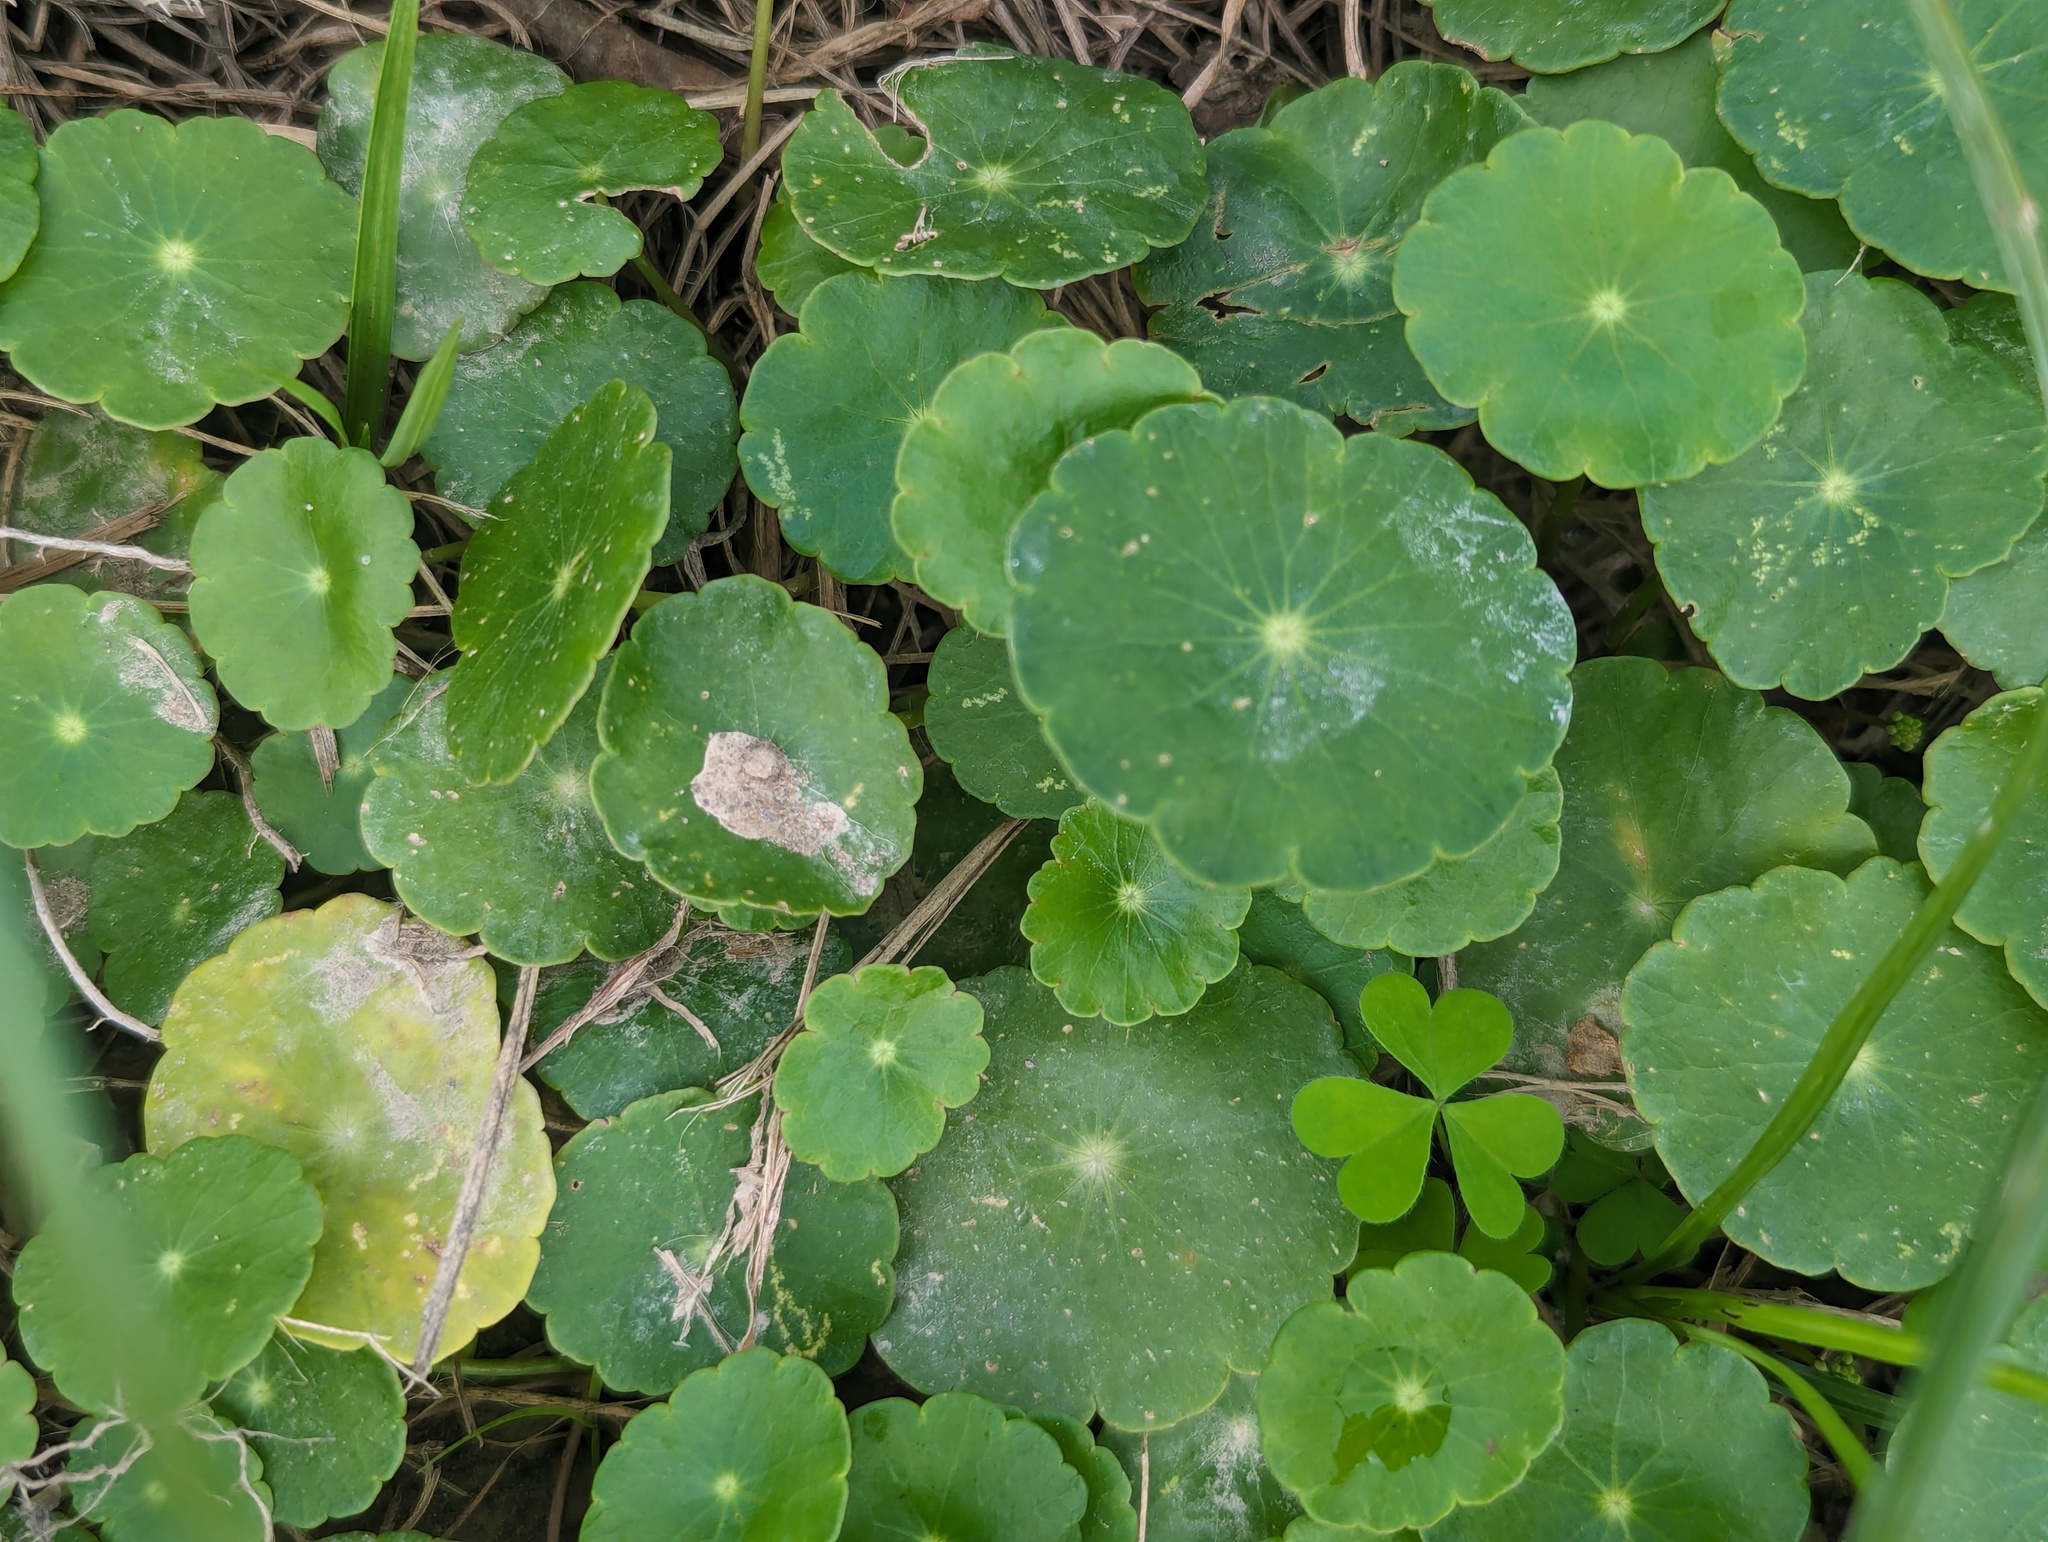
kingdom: Plantae
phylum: Tracheophyta
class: Magnoliopsida
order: Apiales
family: Araliaceae
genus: Hydrocotyle
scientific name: Hydrocotyle verticillata
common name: Whorled marshpennywort
